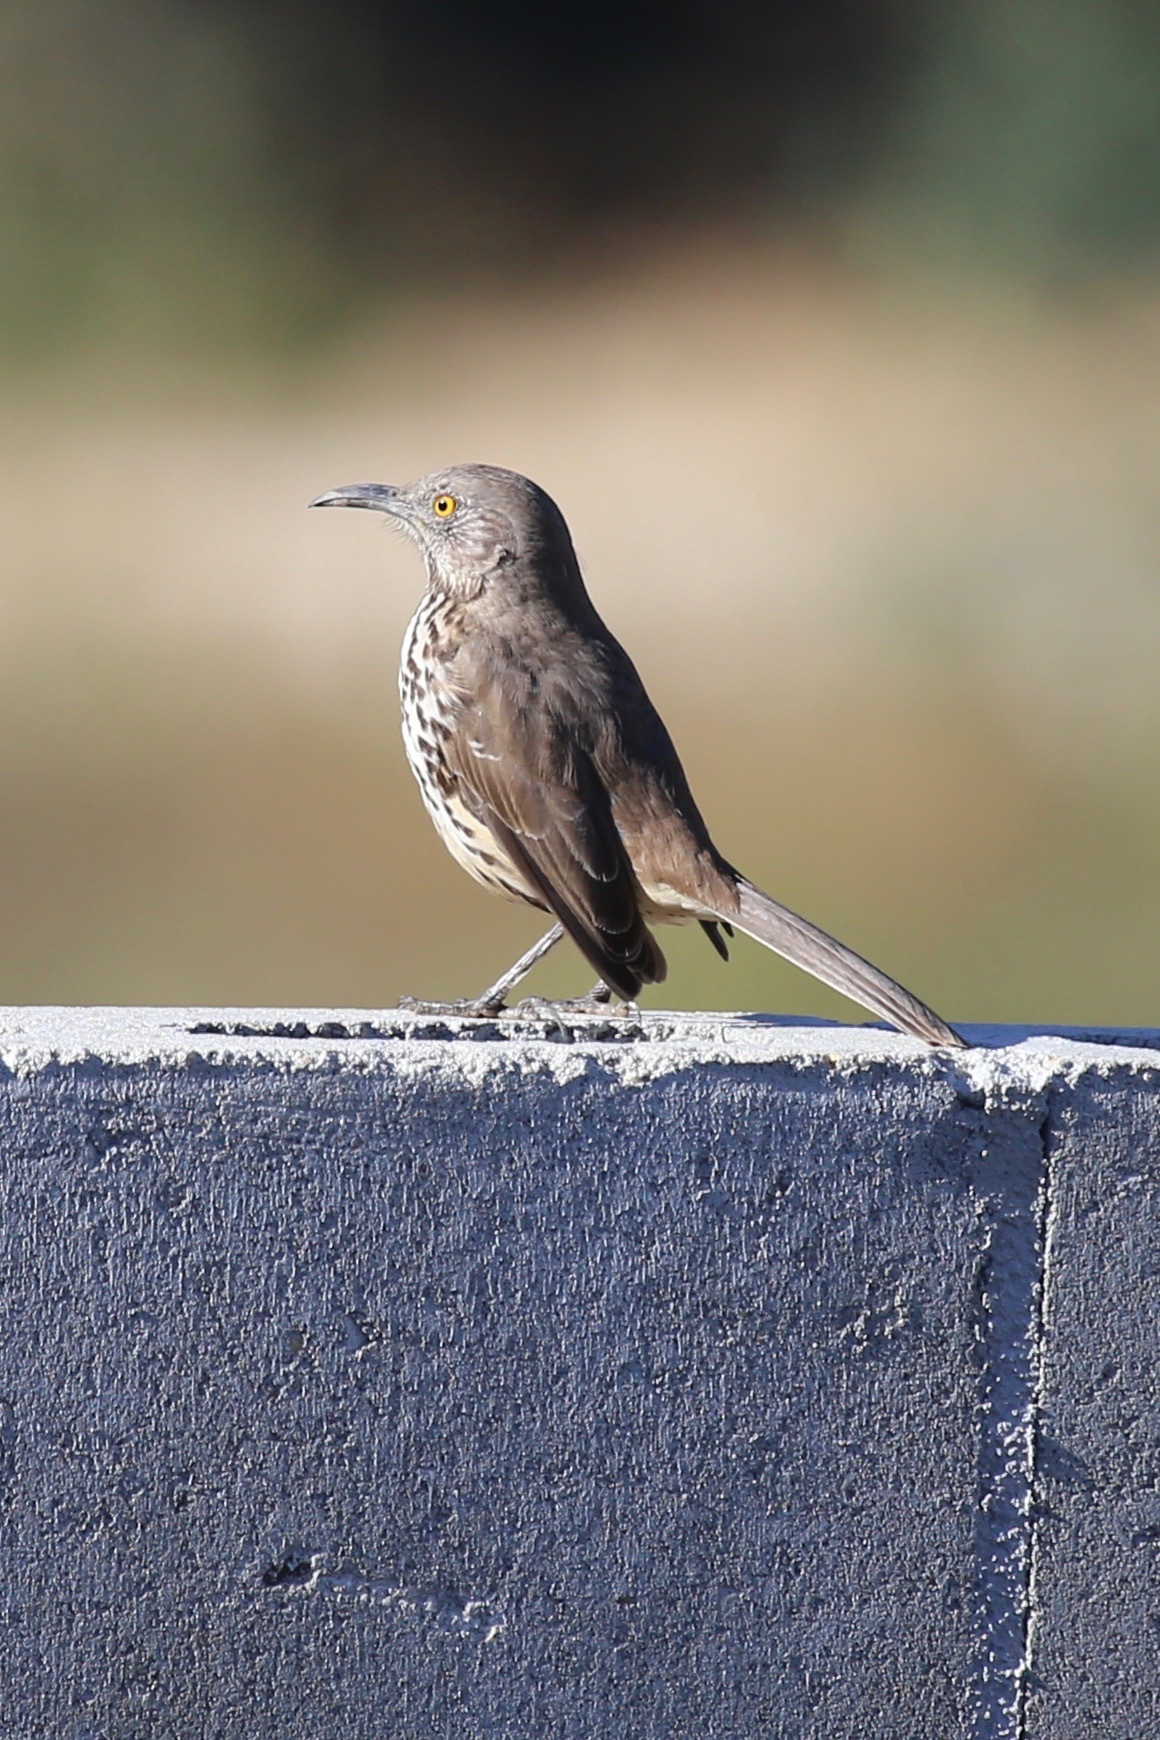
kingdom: Animalia
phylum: Chordata
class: Aves
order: Passeriformes
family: Mimidae
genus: Toxostoma
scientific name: Toxostoma cinereum
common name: Gray thrasher
